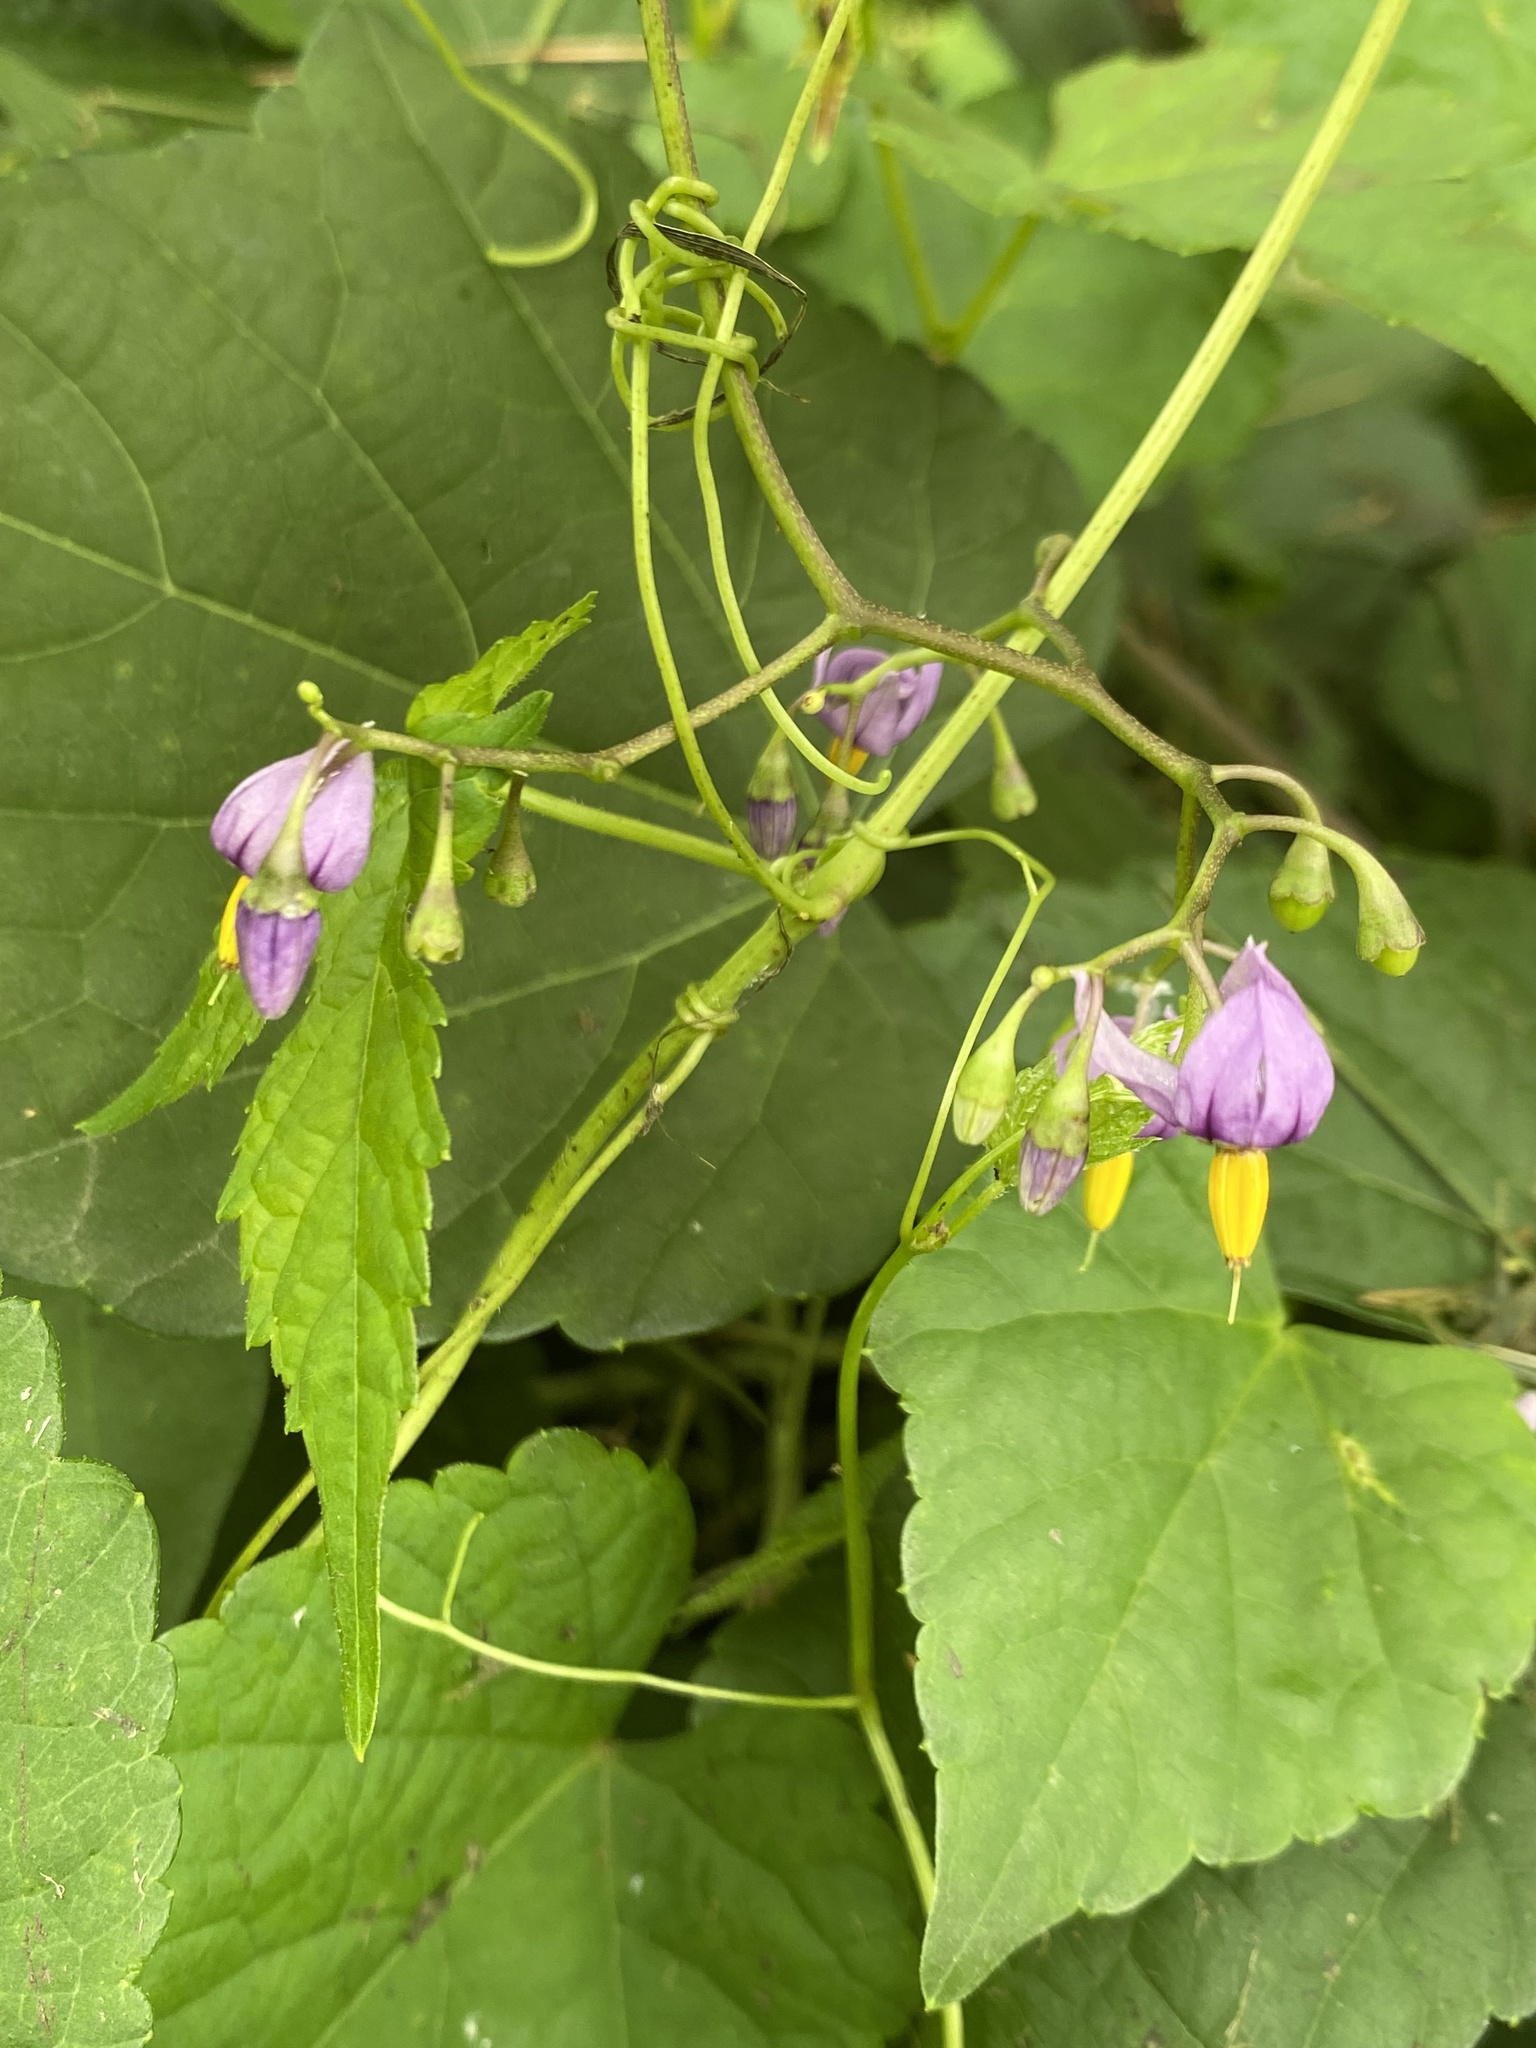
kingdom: Plantae
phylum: Tracheophyta
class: Magnoliopsida
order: Solanales
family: Solanaceae
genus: Solanum
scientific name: Solanum dulcamara
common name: Climbing nightshade
